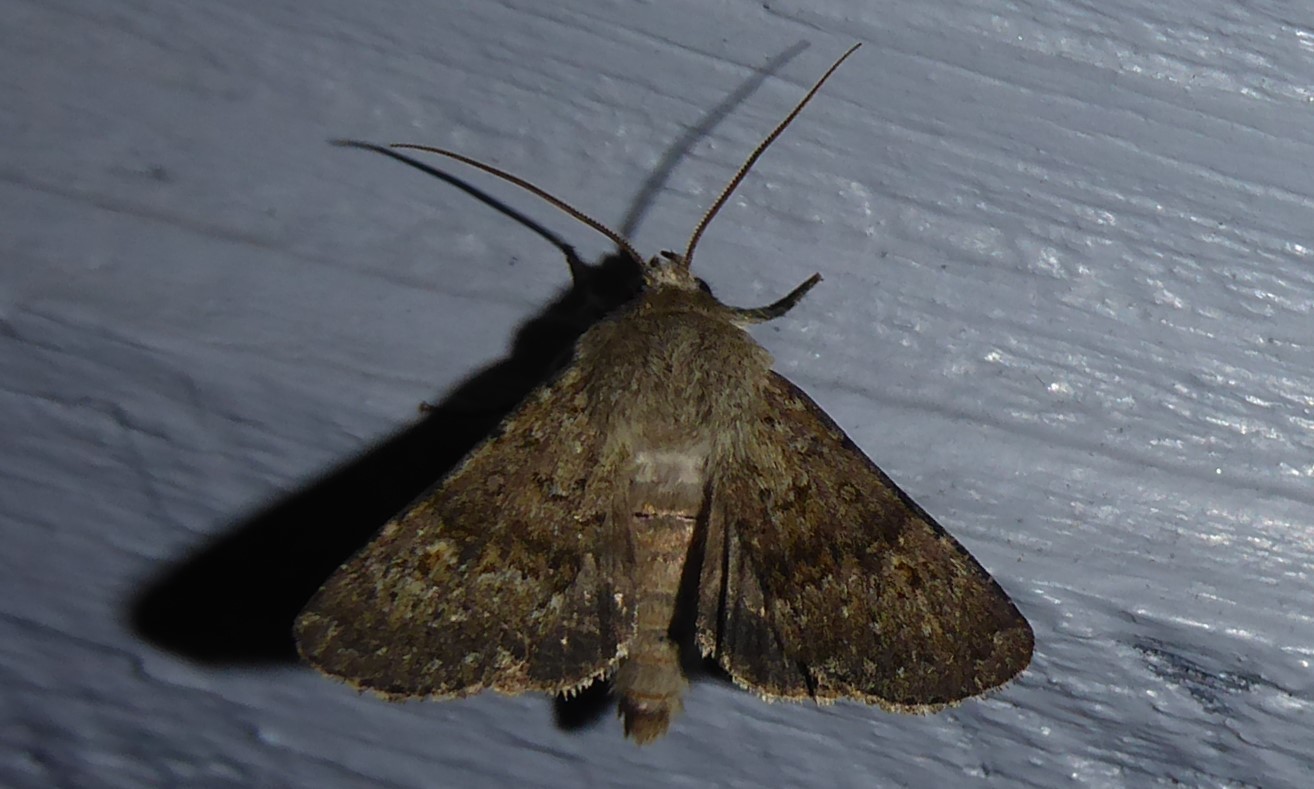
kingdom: Animalia
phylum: Arthropoda
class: Insecta
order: Lepidoptera
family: Noctuidae
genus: Ichneutica
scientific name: Ichneutica moderata
